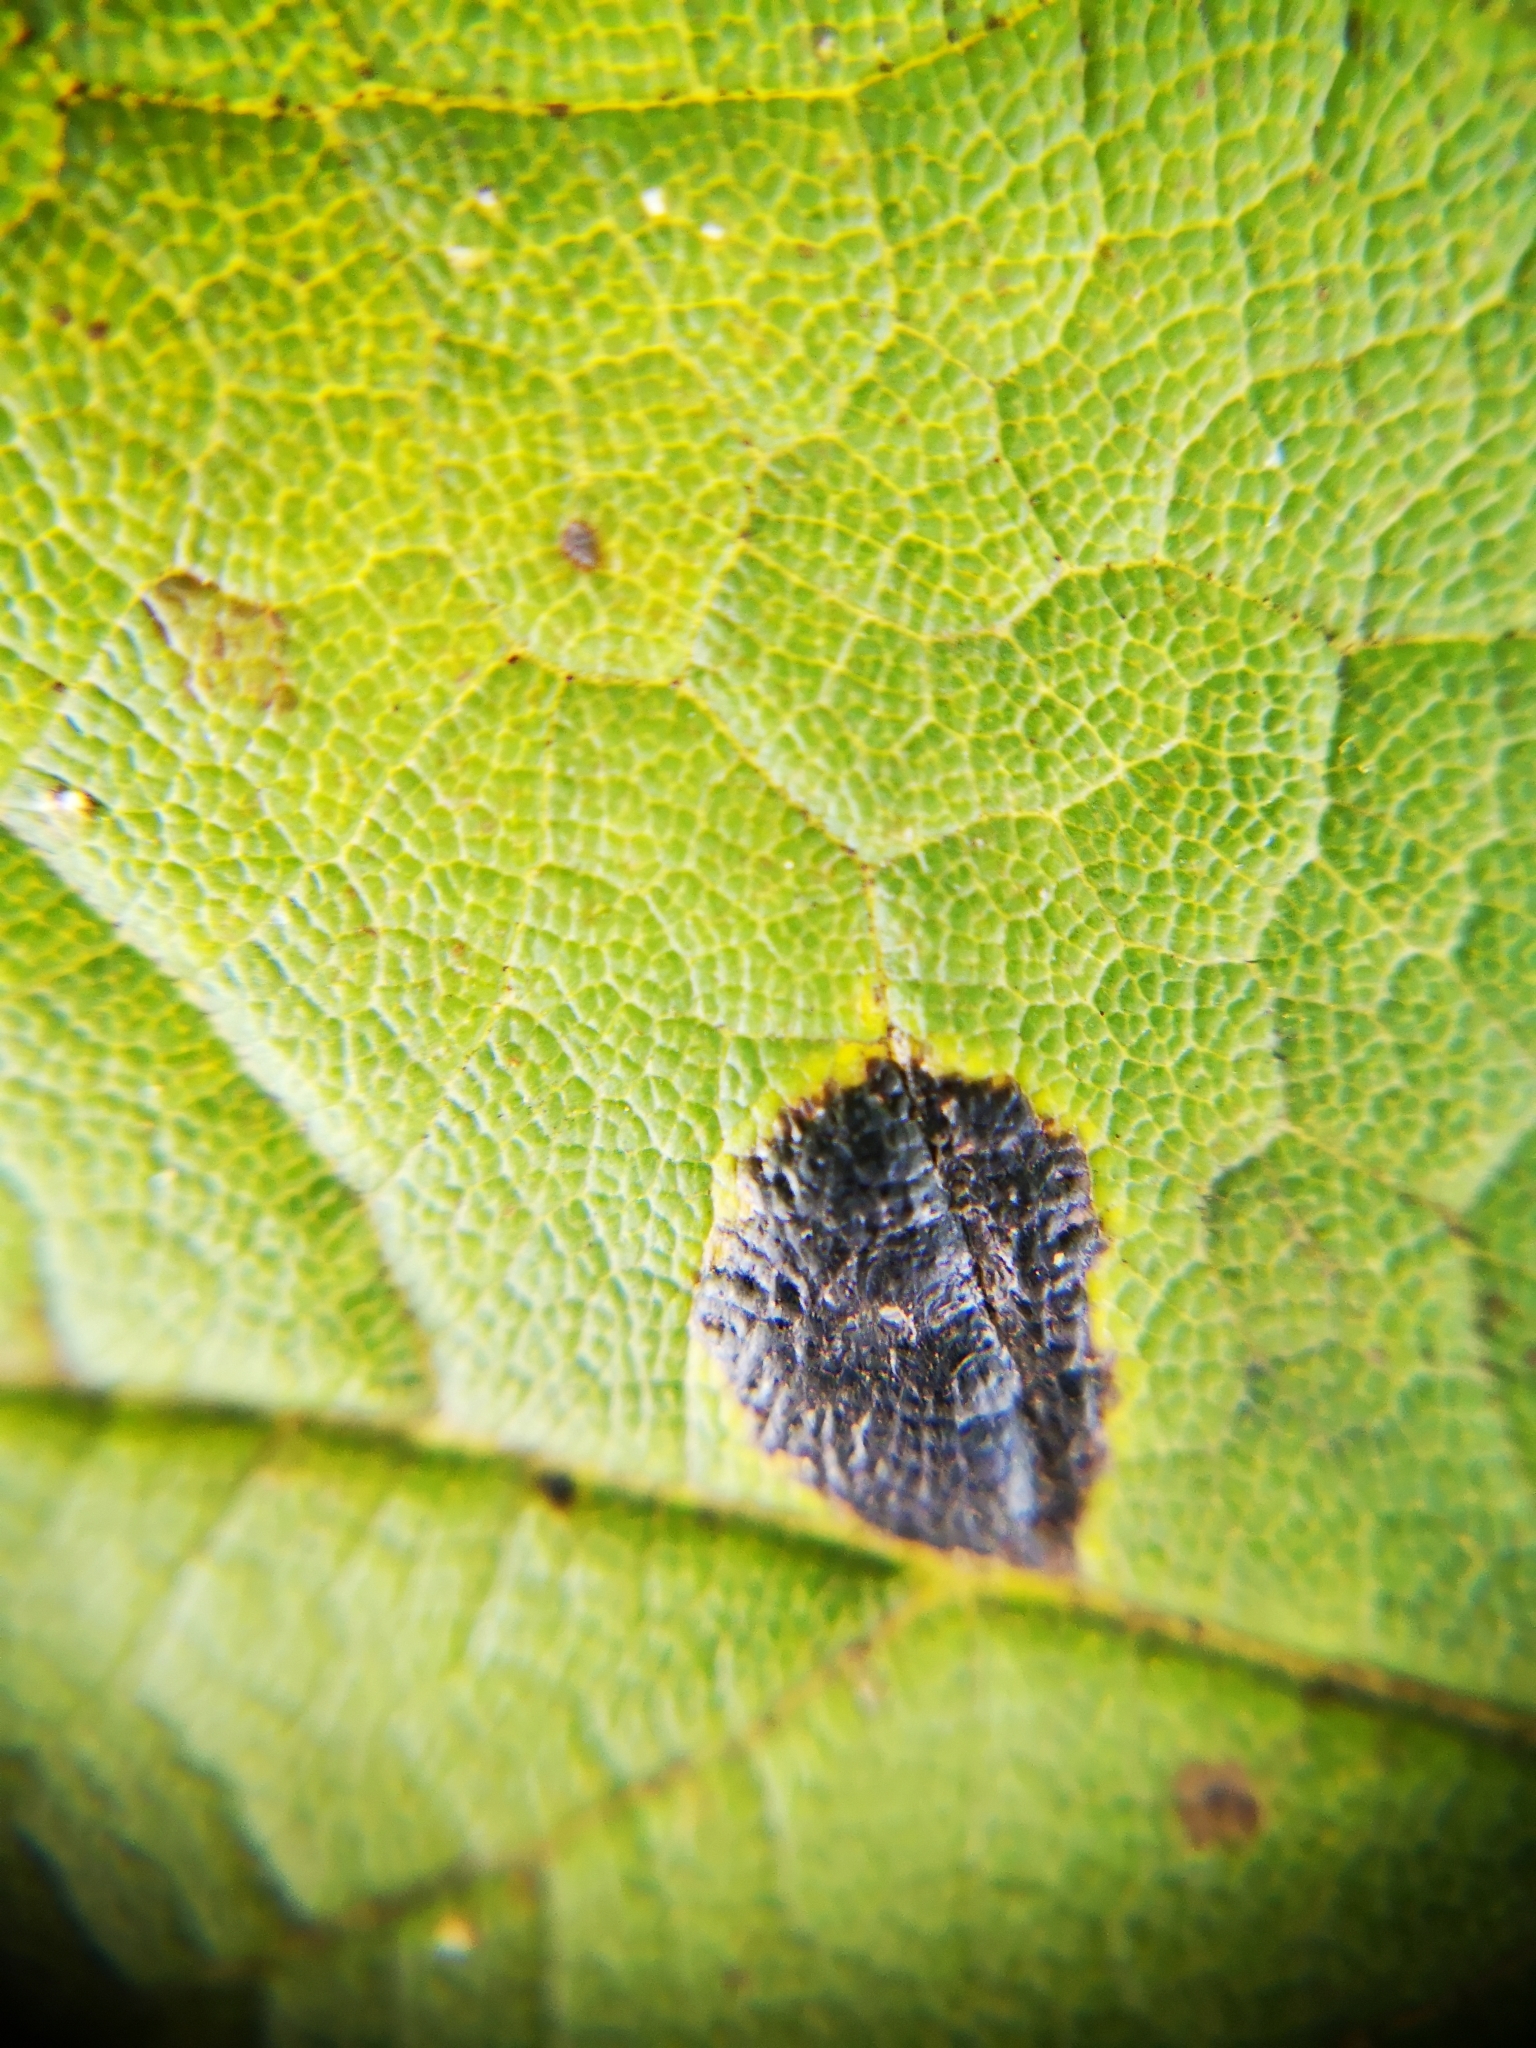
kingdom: Fungi
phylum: Ascomycota
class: Leotiomycetes
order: Rhytismatales
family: Rhytismataceae
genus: Rhytisma
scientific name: Rhytisma acerinum
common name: European tar spot
